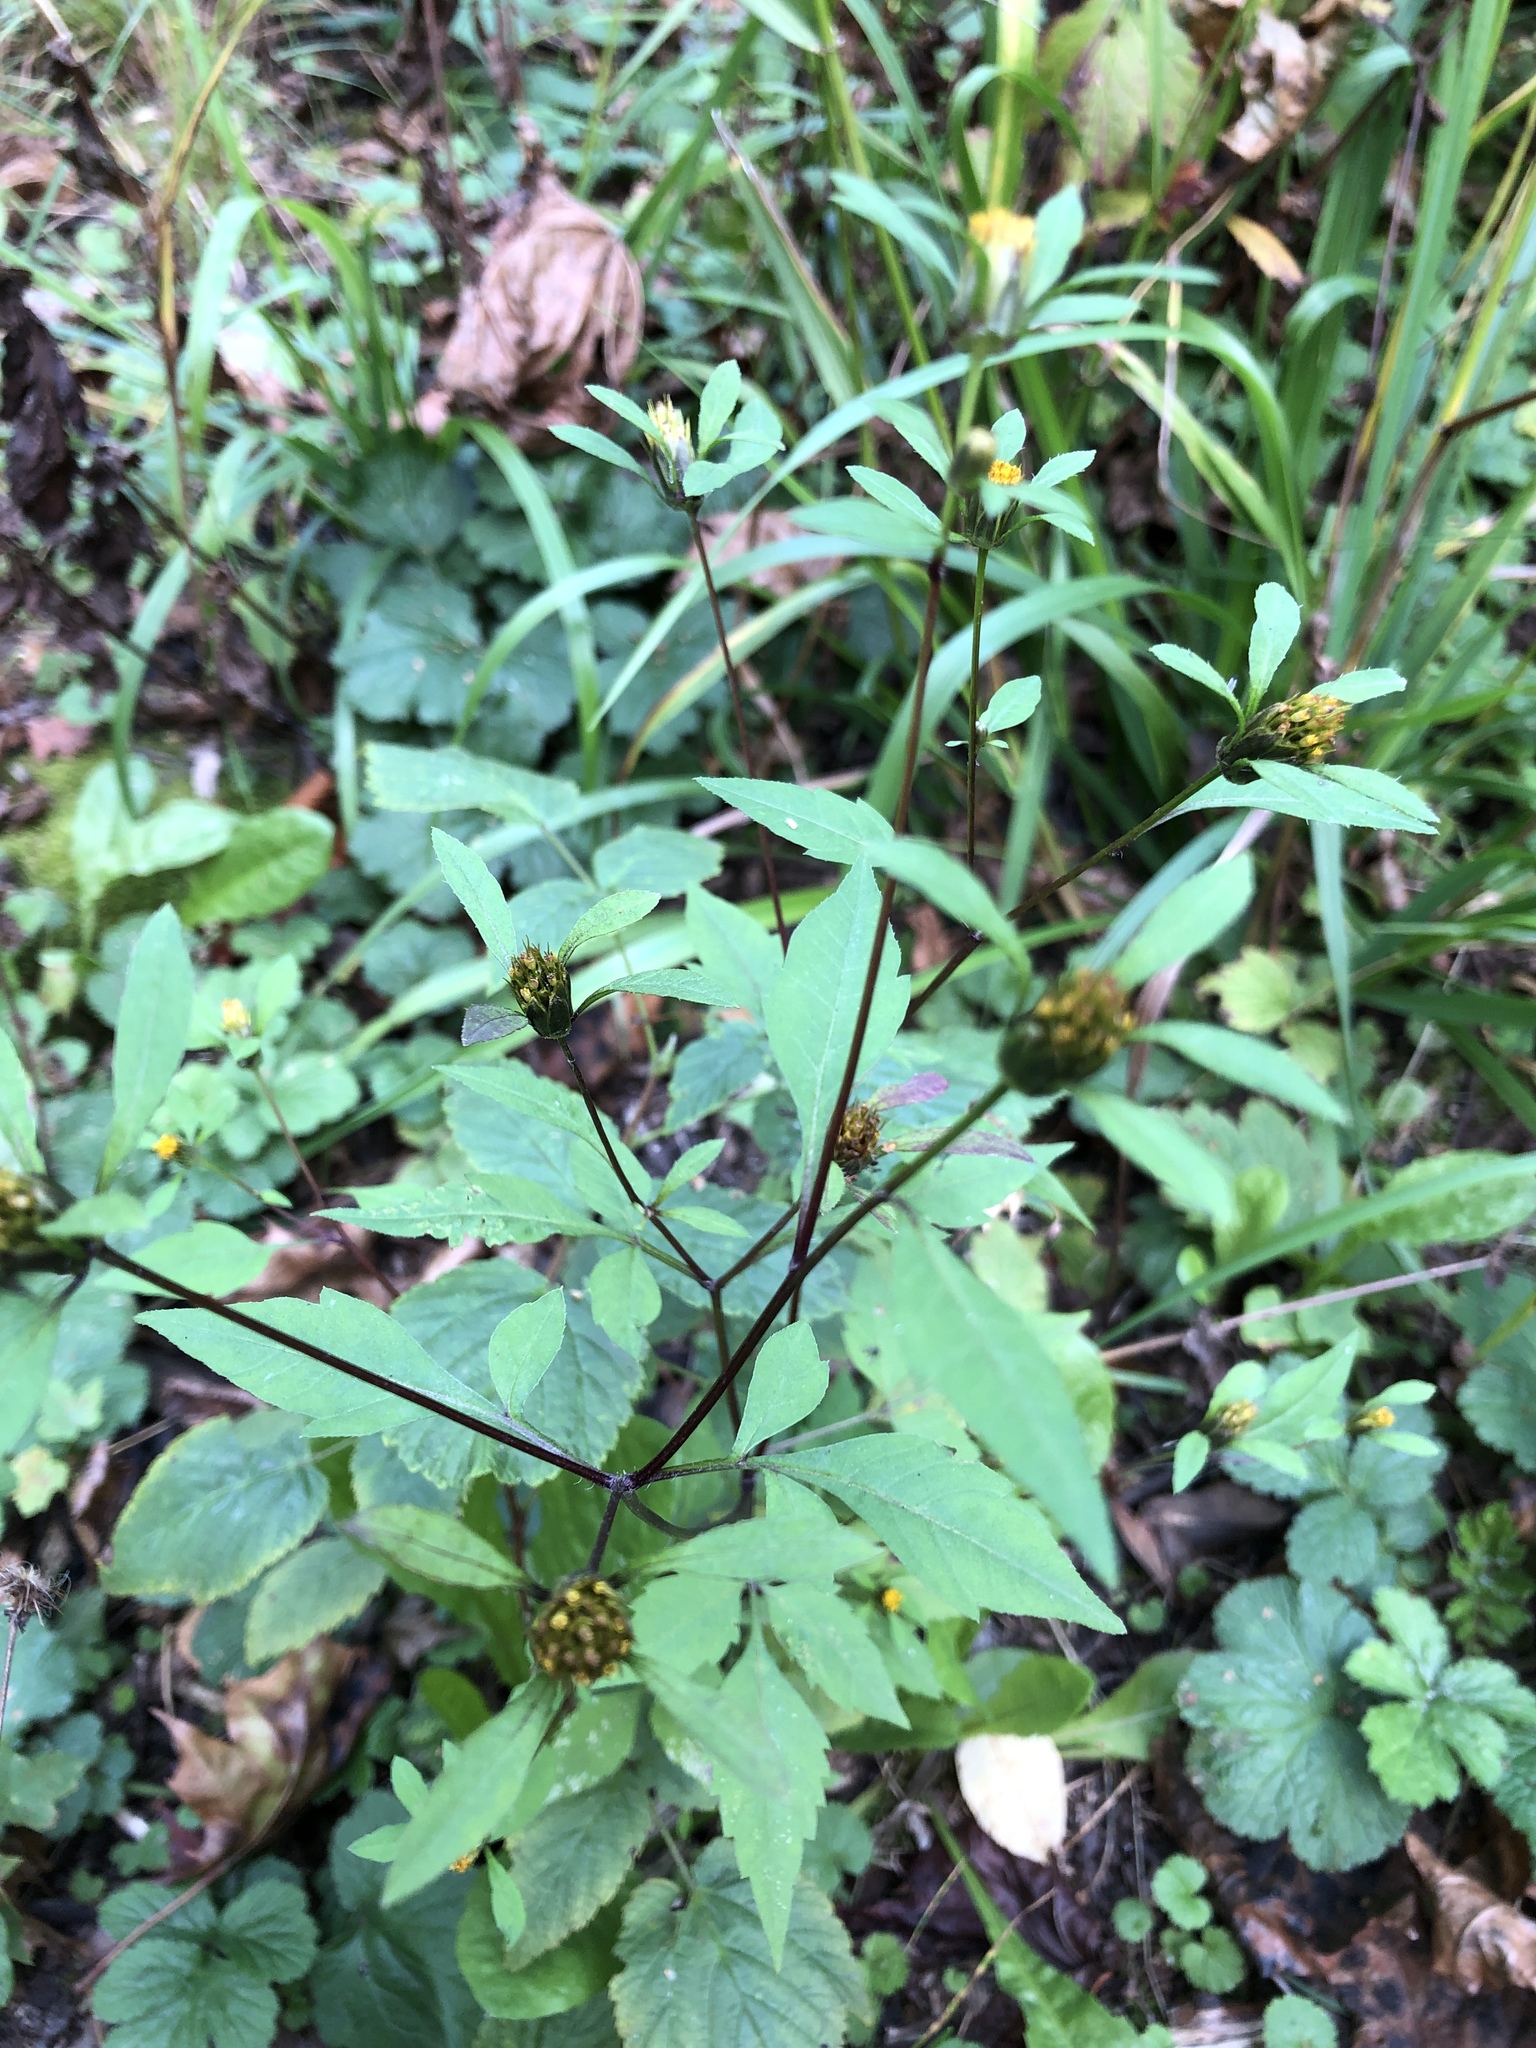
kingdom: Plantae
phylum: Tracheophyta
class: Magnoliopsida
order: Asterales
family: Asteraceae
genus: Bidens
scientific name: Bidens frondosa
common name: Beggarticks
